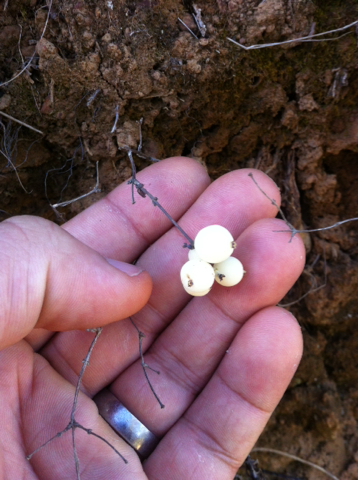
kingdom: Plantae
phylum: Tracheophyta
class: Magnoliopsida
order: Dipsacales
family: Caprifoliaceae
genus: Symphoricarpos
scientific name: Symphoricarpos mollis
